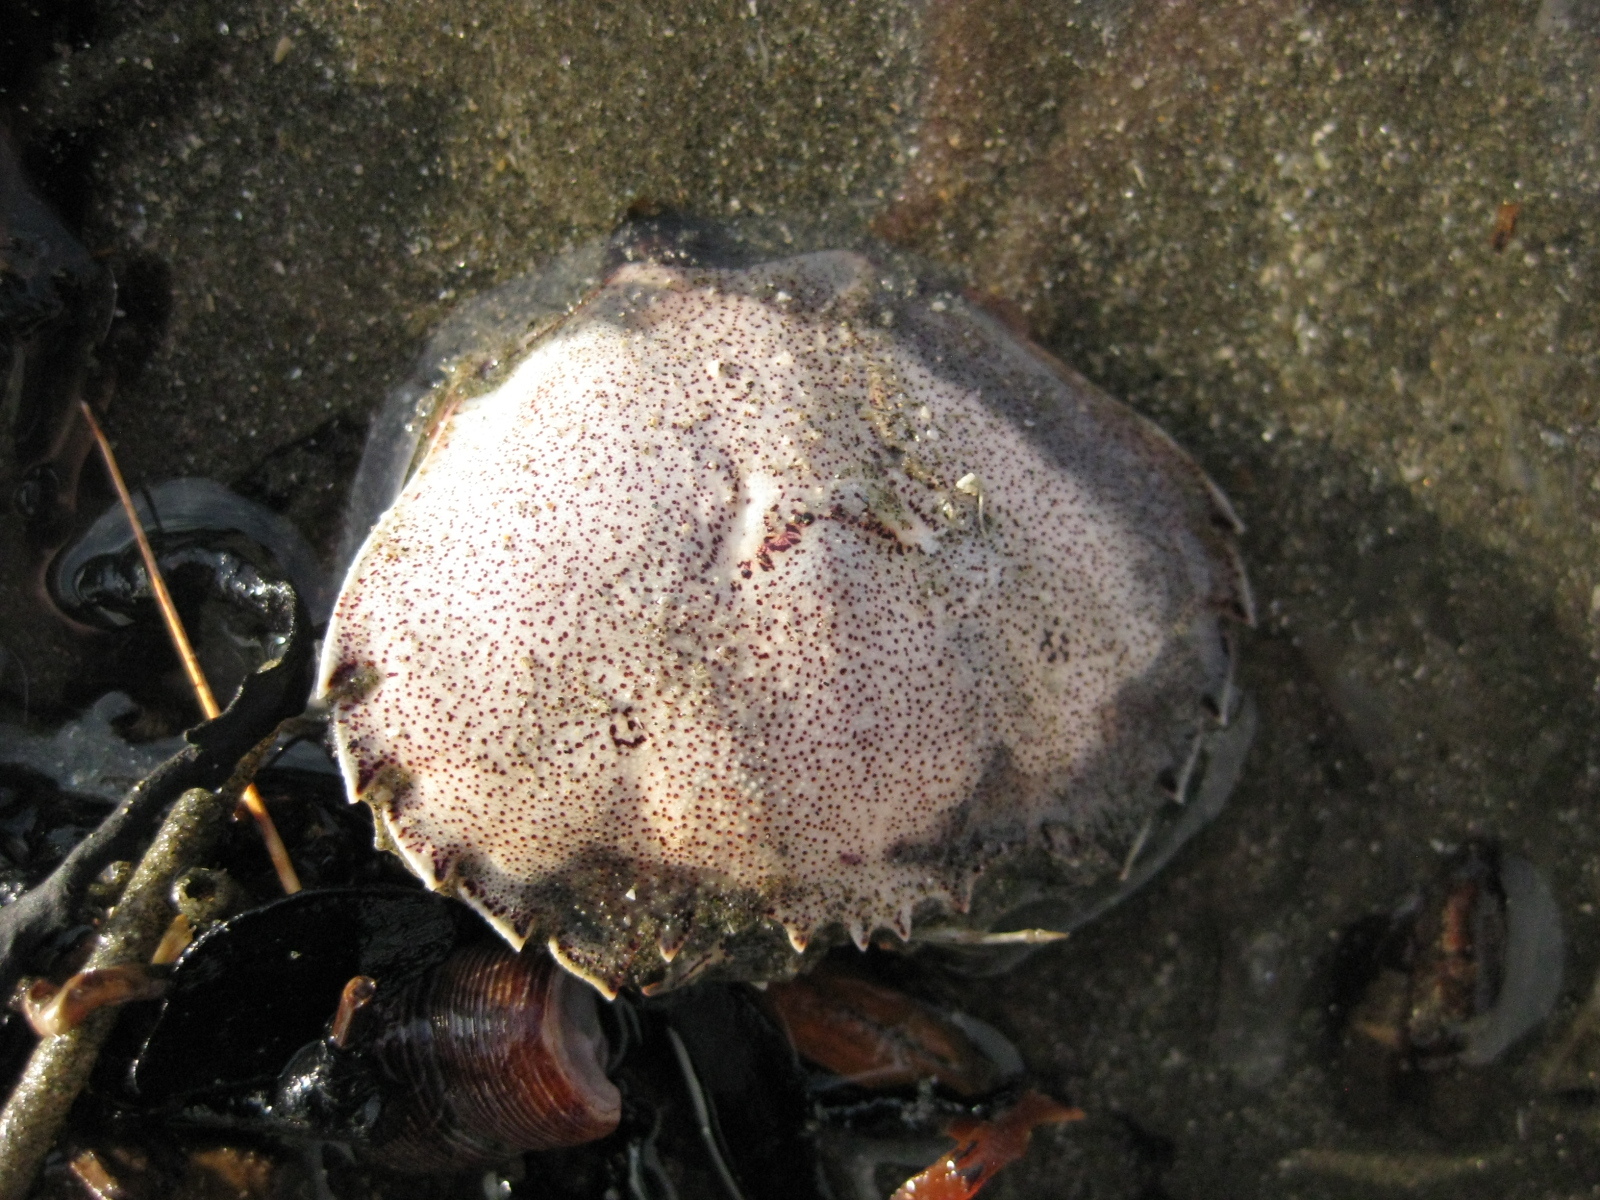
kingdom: Animalia
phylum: Arthropoda
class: Malacostraca
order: Decapoda
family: Ovalipidae
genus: Ovalipes
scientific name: Ovalipes catharus
